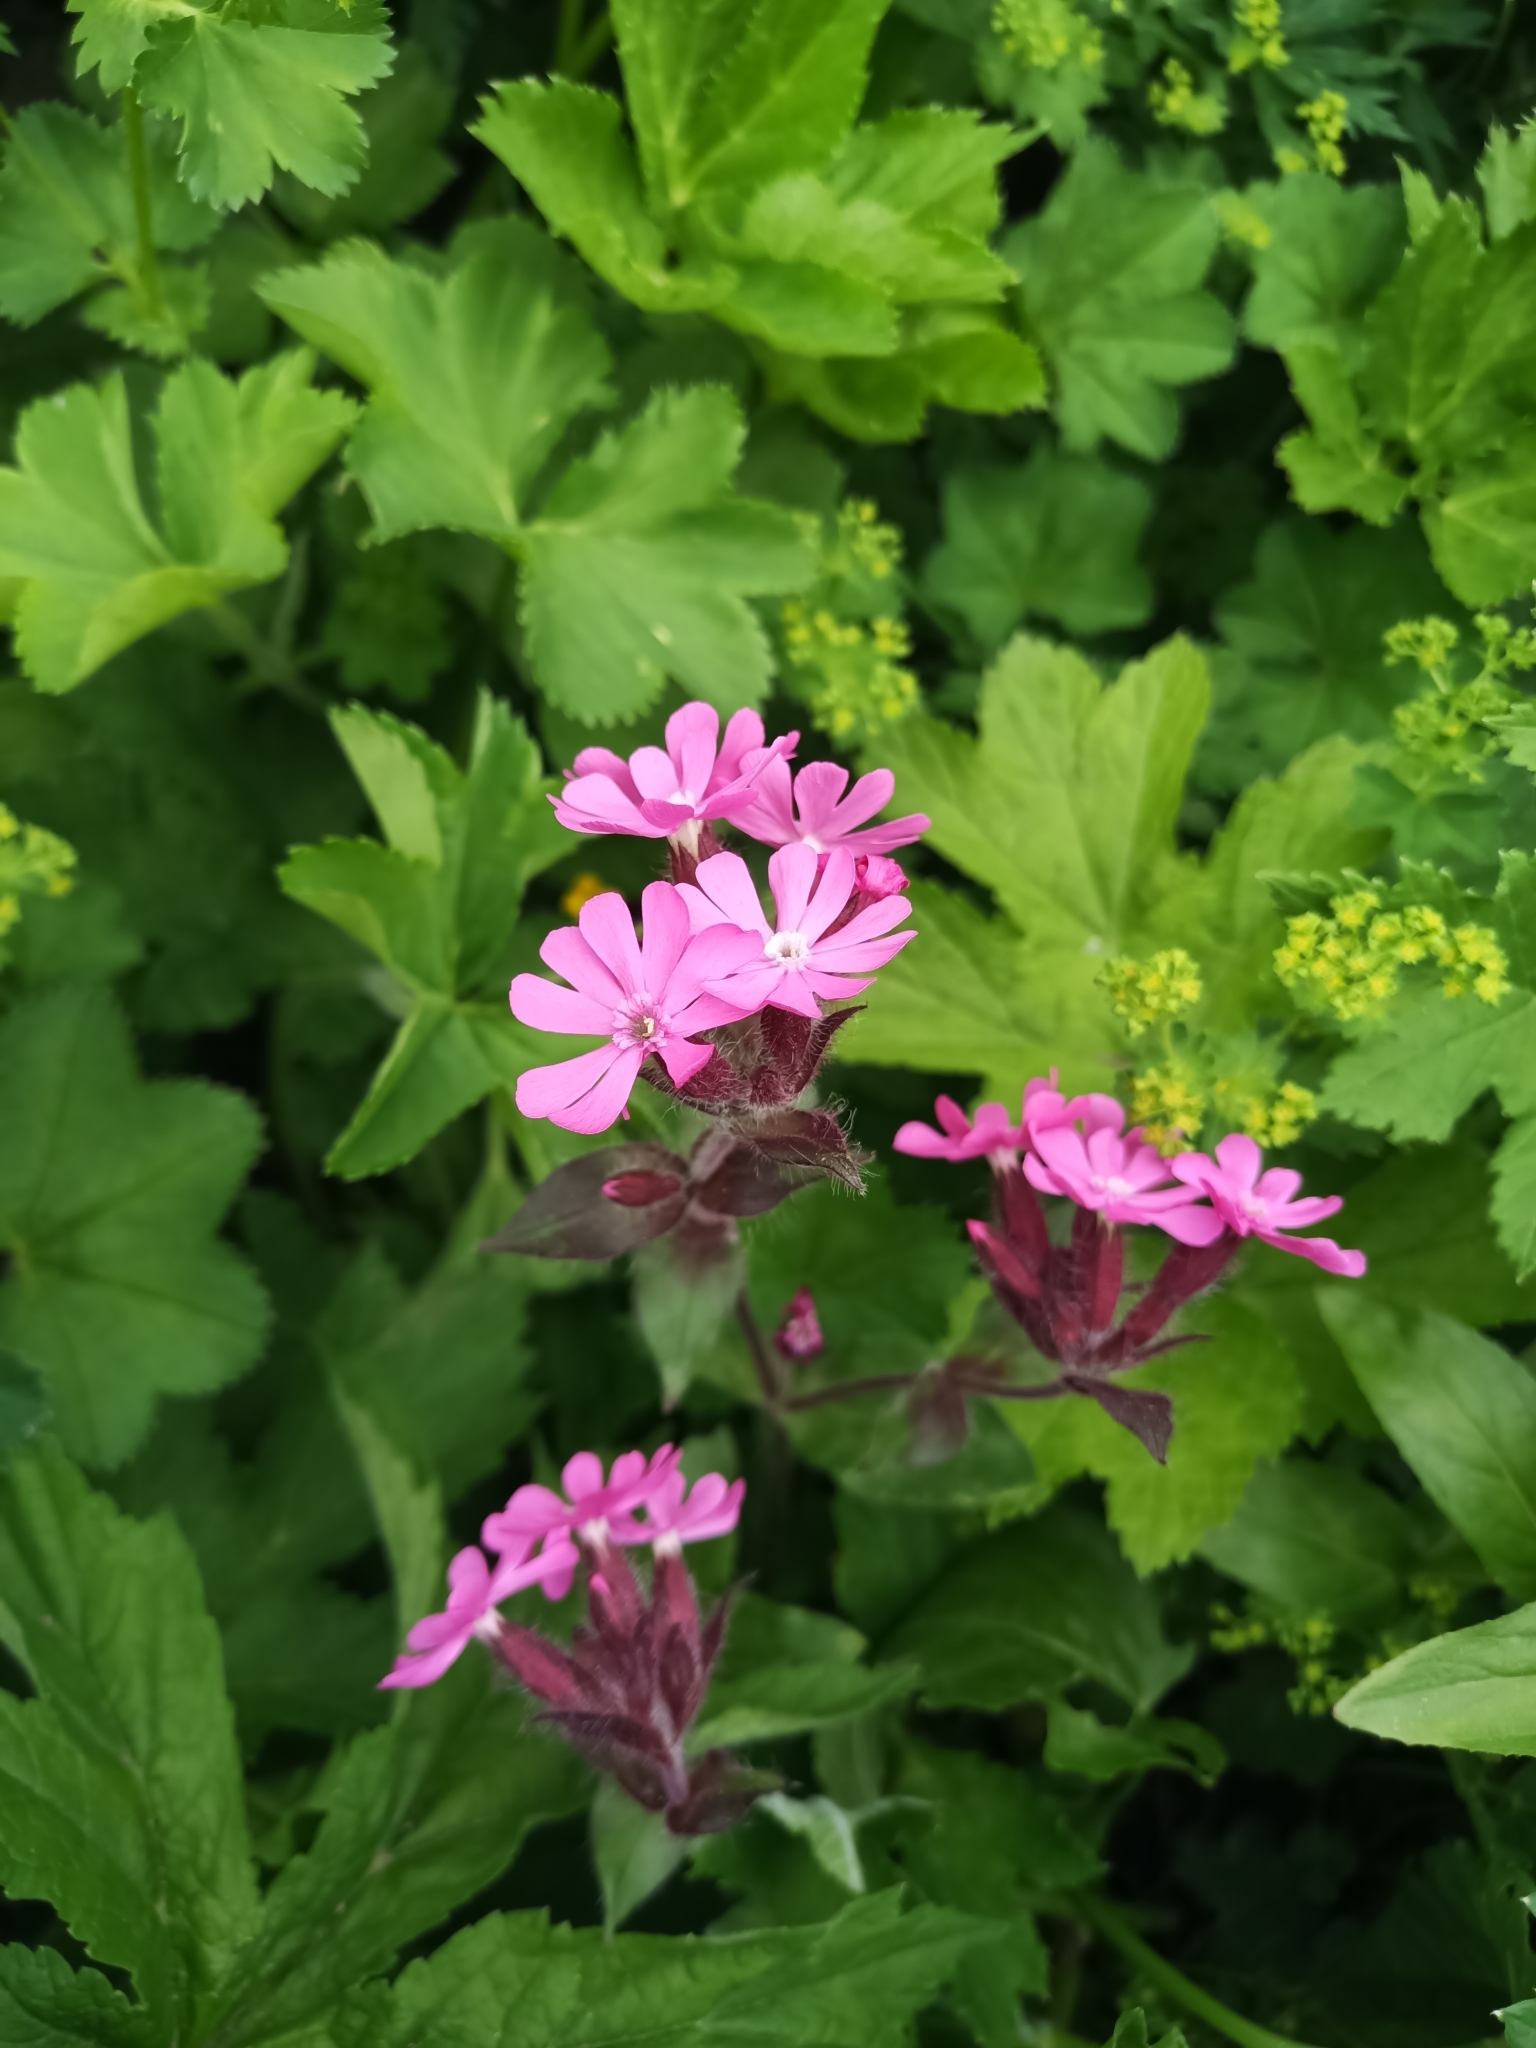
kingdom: Plantae
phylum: Tracheophyta
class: Magnoliopsida
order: Caryophyllales
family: Caryophyllaceae
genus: Silene
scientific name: Silene dioica
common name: Red campion
